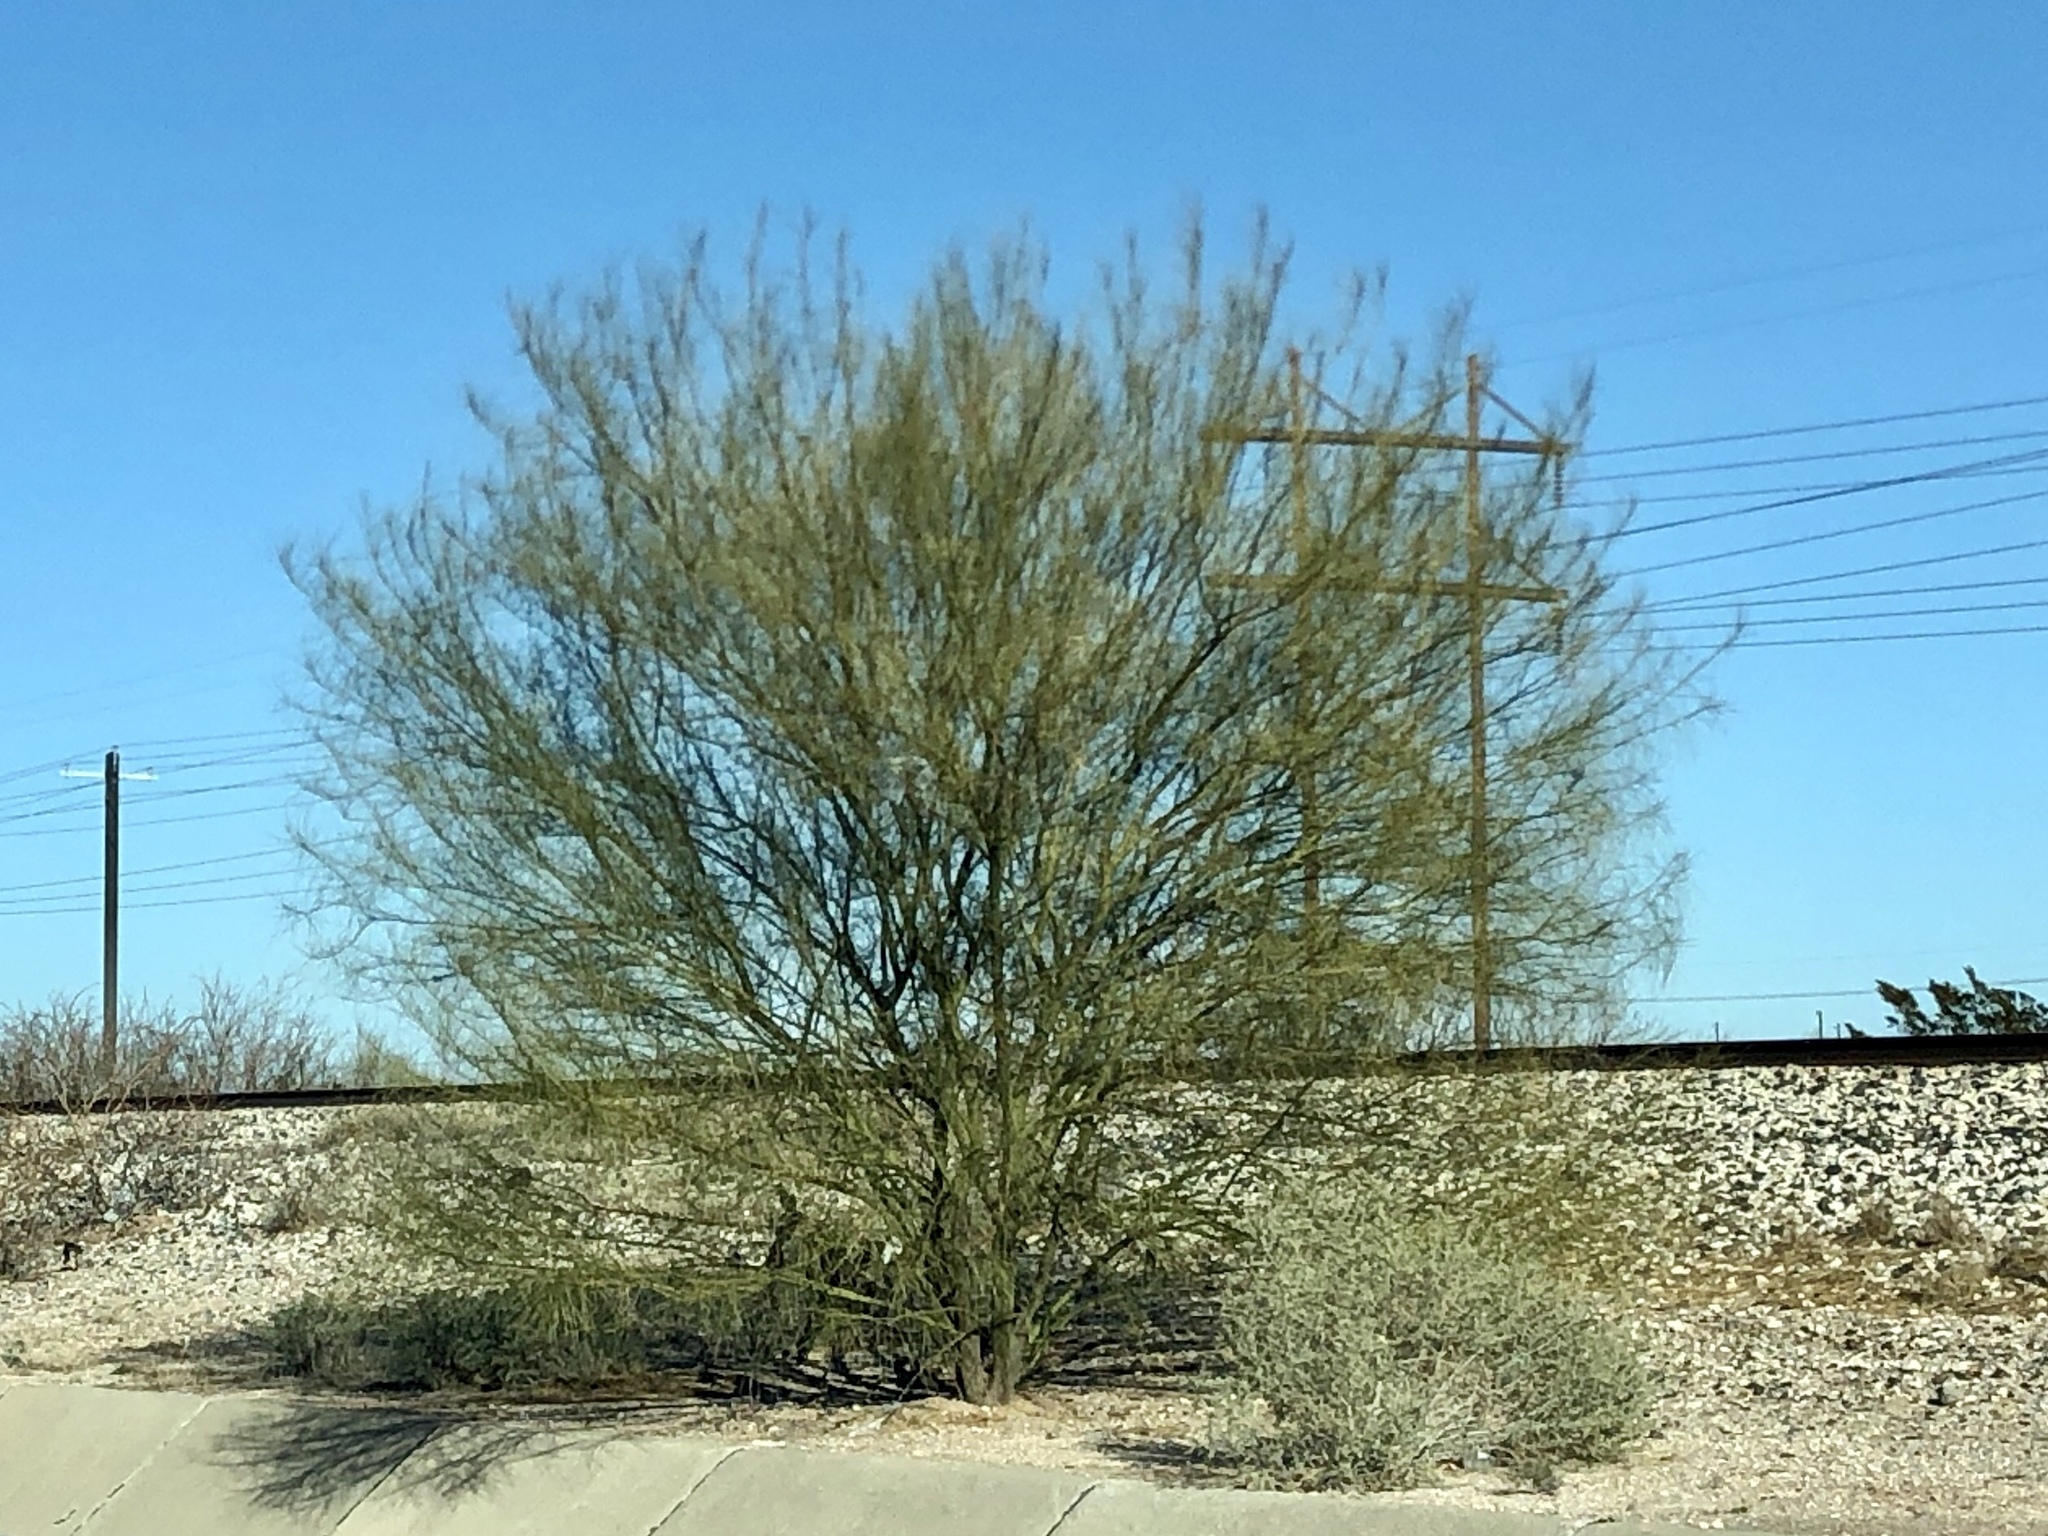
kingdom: Plantae
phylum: Tracheophyta
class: Magnoliopsida
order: Fabales
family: Fabaceae
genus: Parkinsonia
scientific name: Parkinsonia aculeata
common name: Jerusalem thorn
